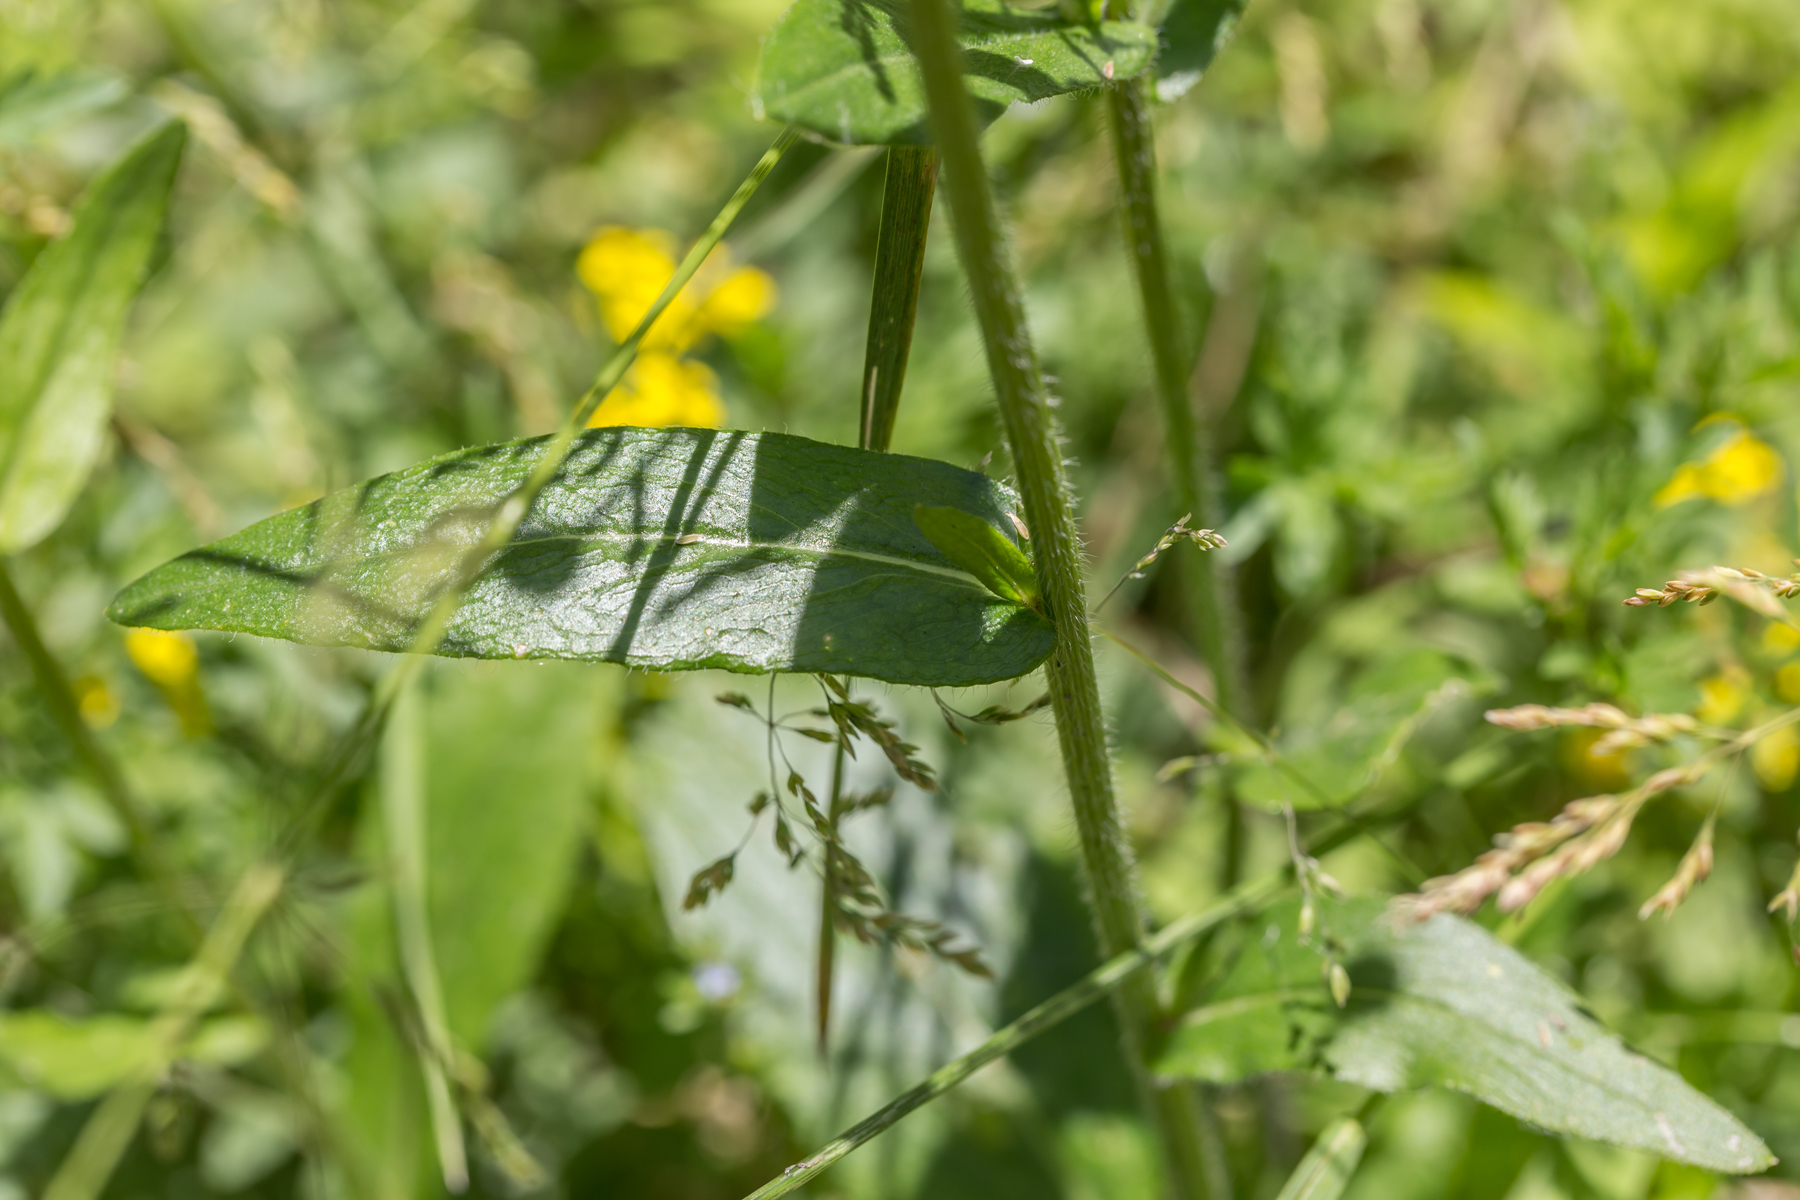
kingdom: Plantae
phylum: Tracheophyta
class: Magnoliopsida
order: Asterales
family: Asteraceae
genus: Erigeron
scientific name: Erigeron philadelphicus
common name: Robin's-plantain
